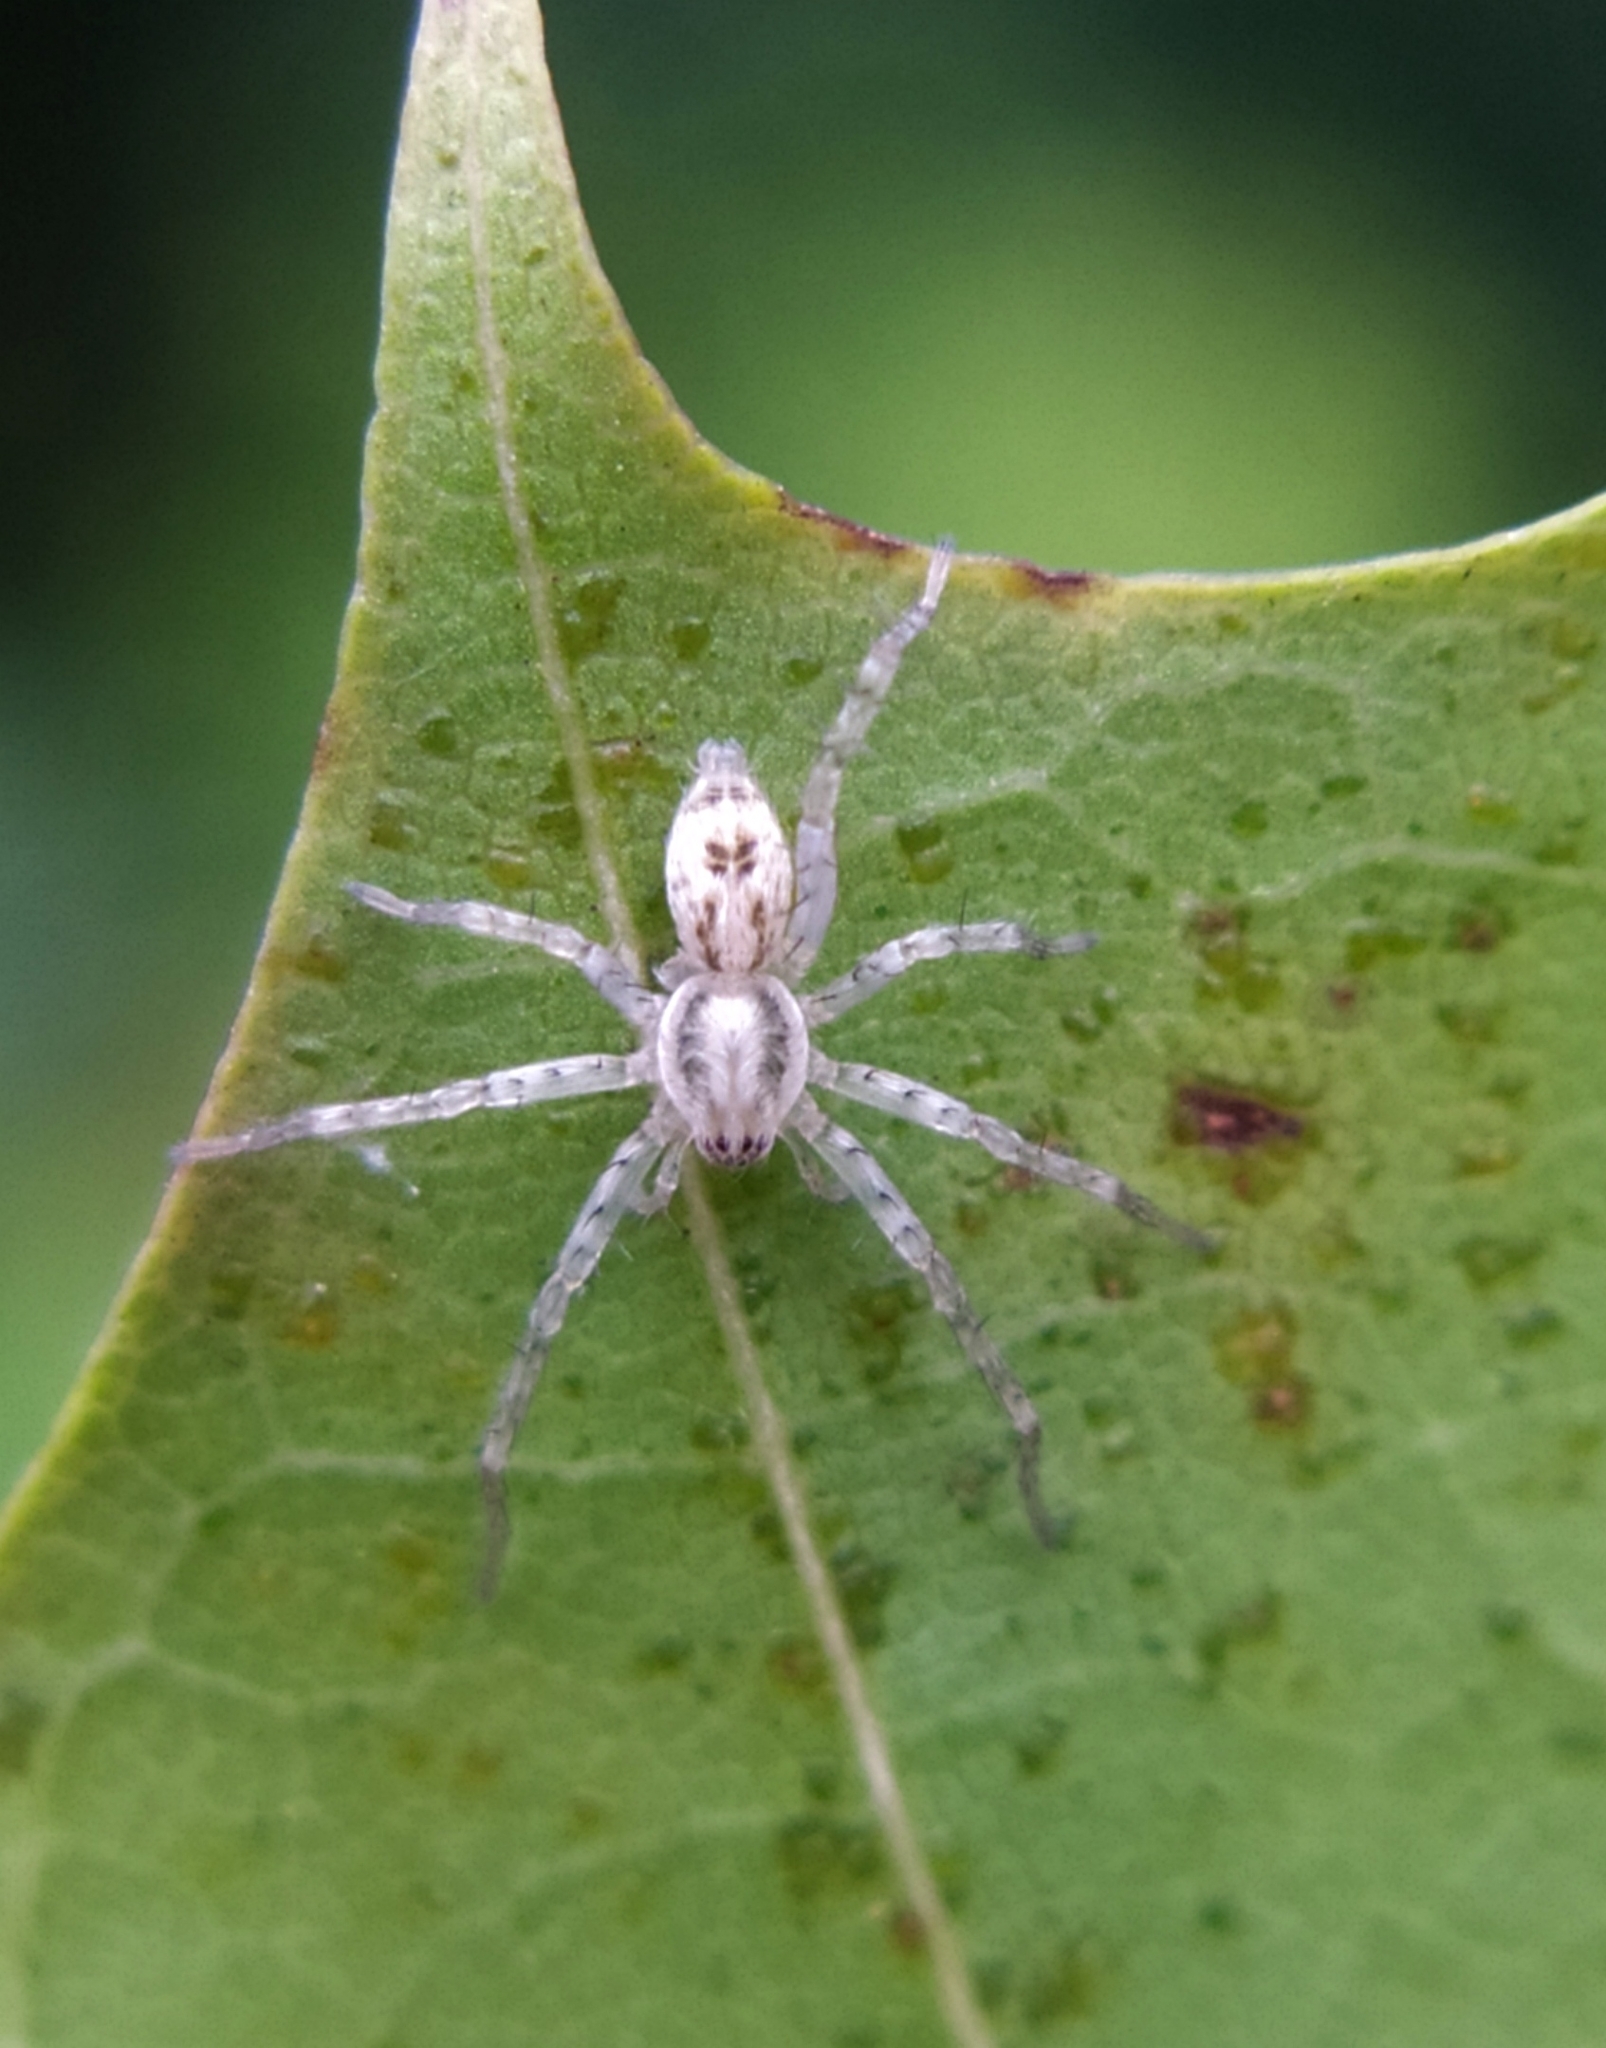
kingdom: Animalia
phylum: Arthropoda
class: Arachnida
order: Araneae
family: Anyphaenidae
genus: Anyphaena
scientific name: Anyphaena accentuata
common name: Buzzing spider
